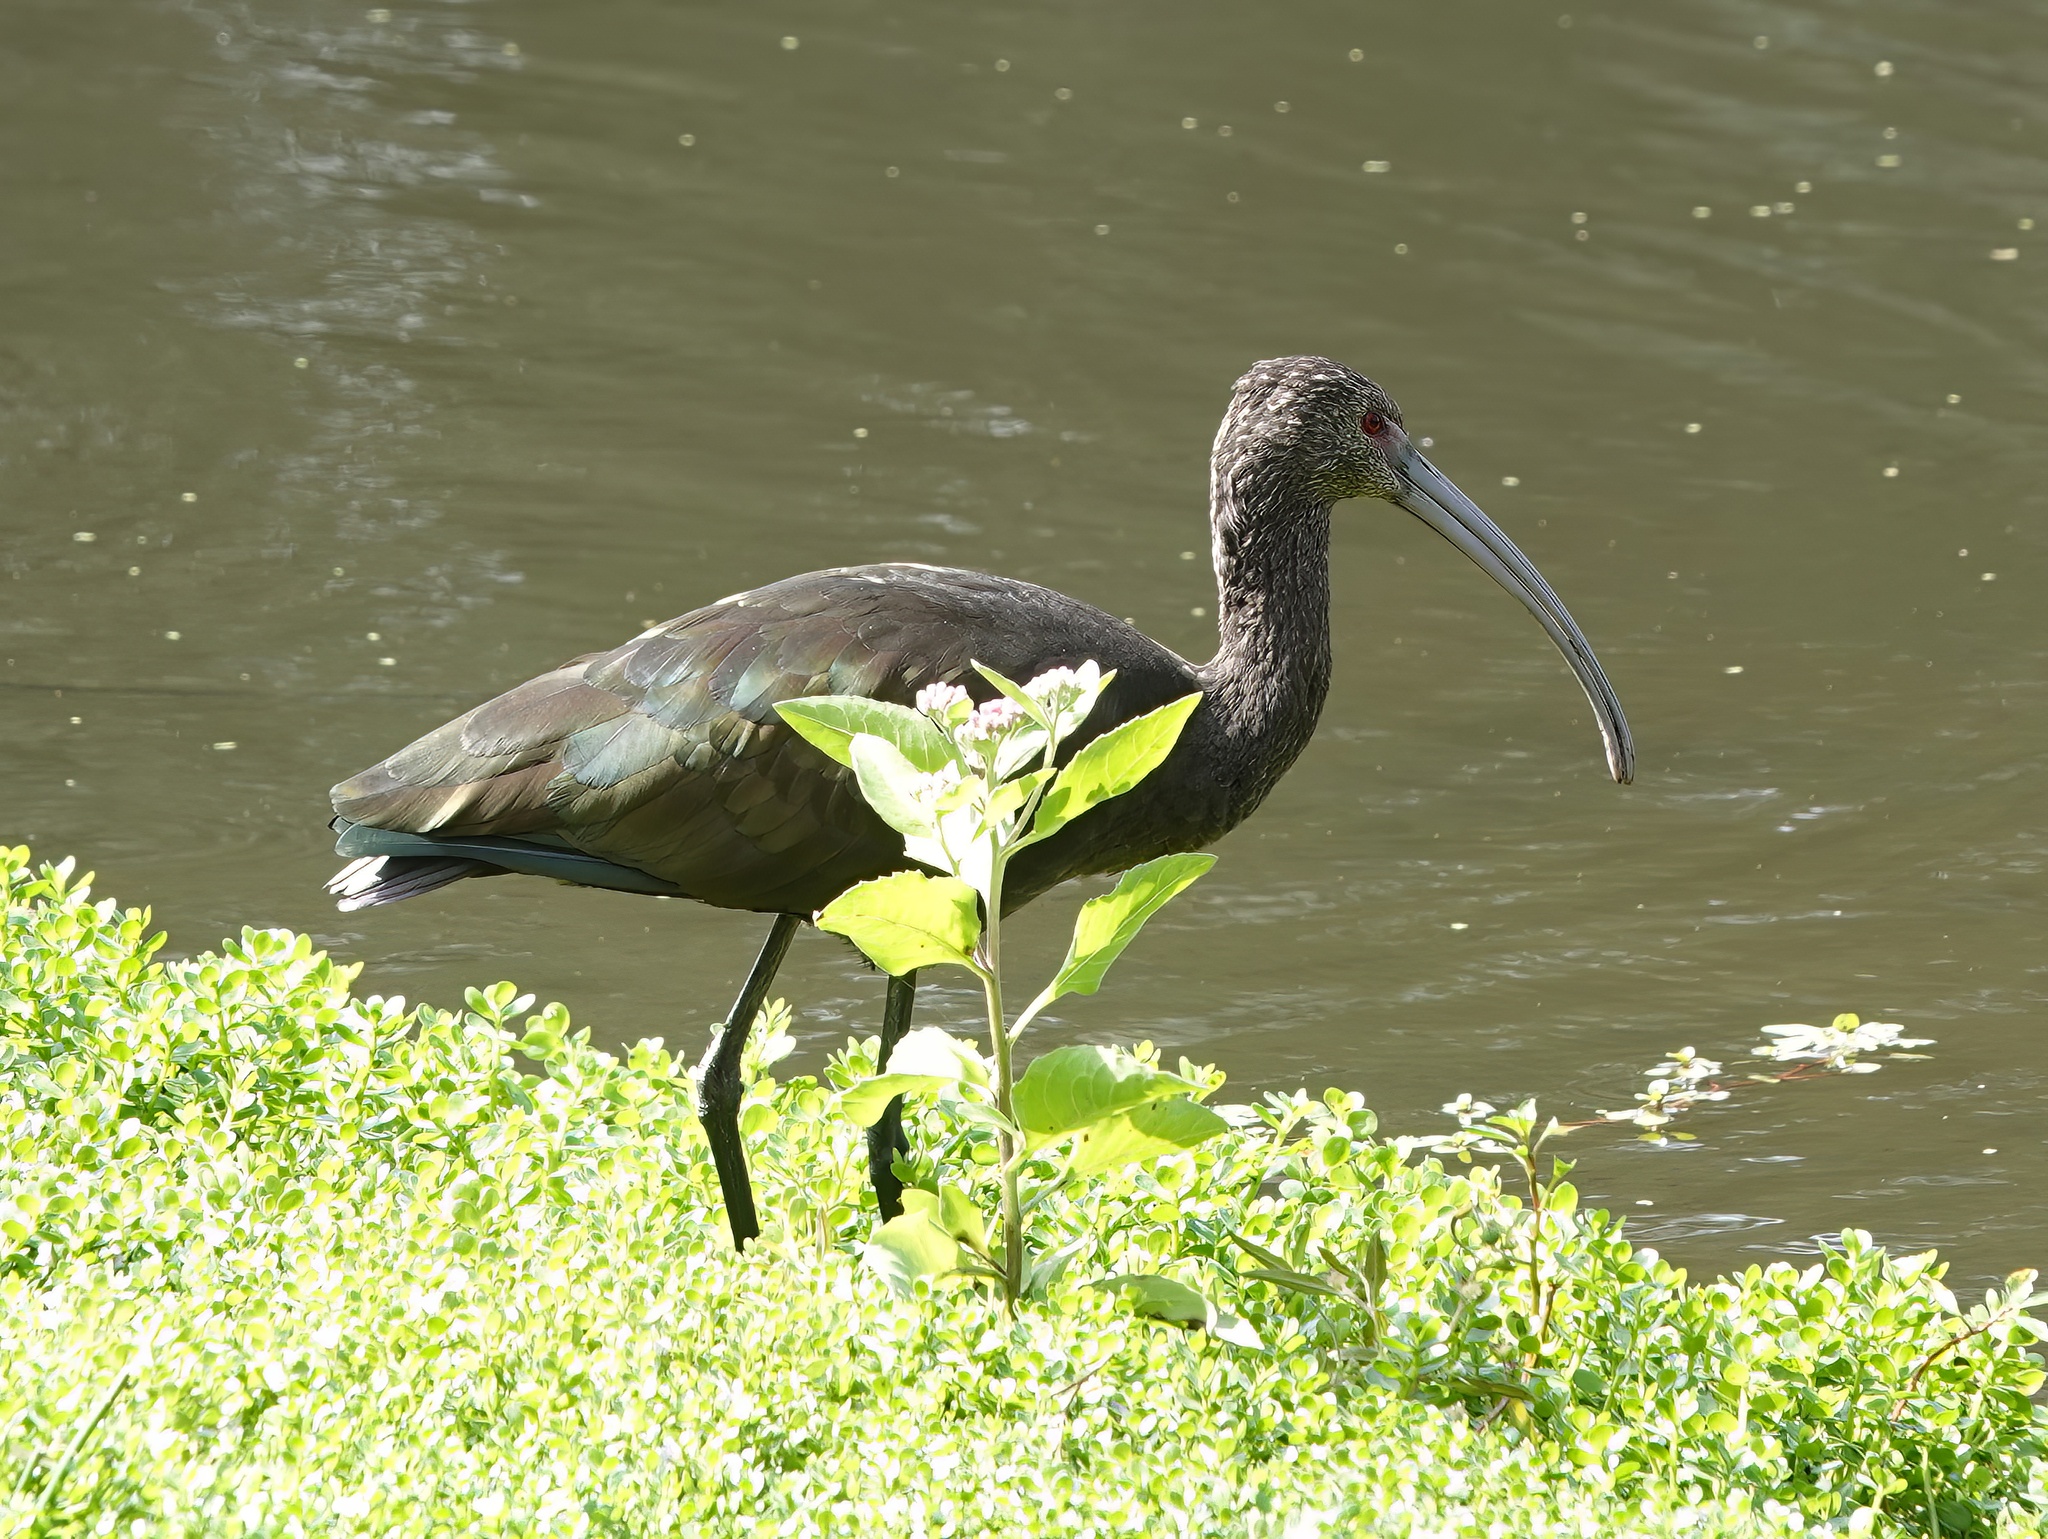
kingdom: Animalia
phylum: Chordata
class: Aves
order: Pelecaniformes
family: Threskiornithidae
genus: Plegadis
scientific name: Plegadis chihi
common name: White-faced ibis
